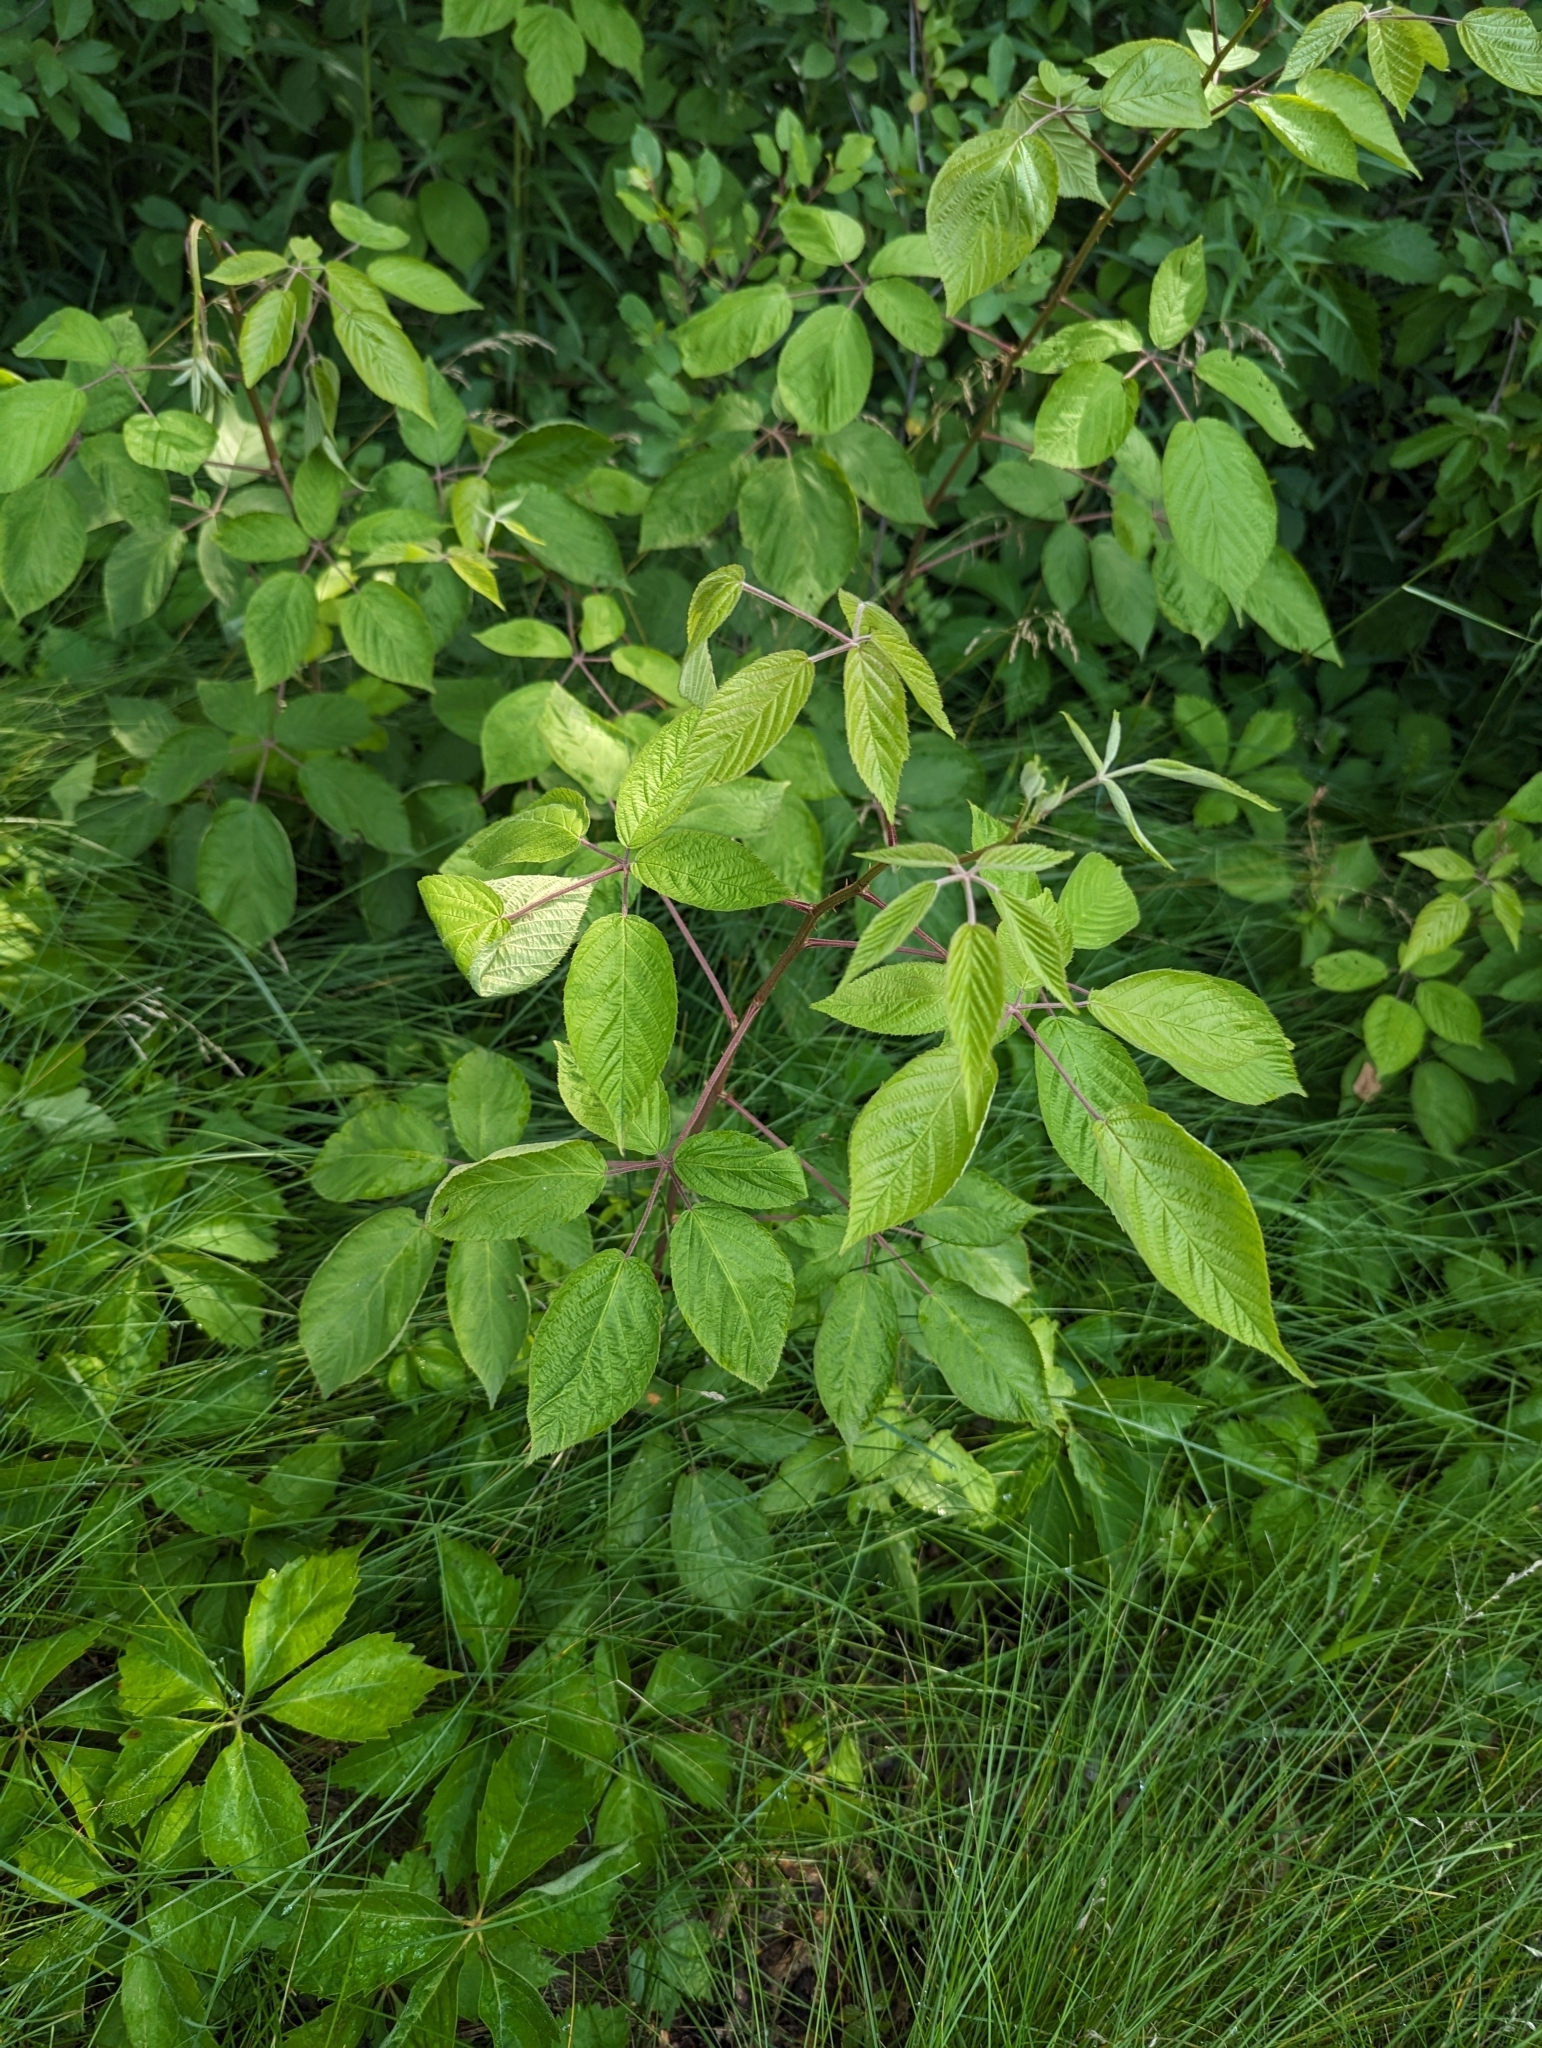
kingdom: Plantae
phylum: Tracheophyta
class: Magnoliopsida
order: Rosales
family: Rosaceae
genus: Rubus
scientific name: Rubus allegheniensis
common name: Allegheny blackberry
